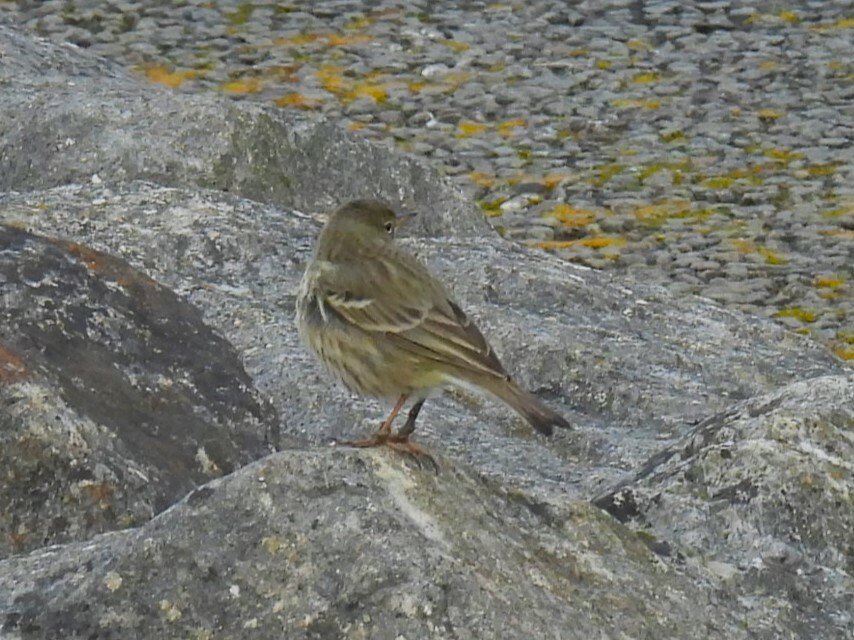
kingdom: Animalia
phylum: Chordata
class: Aves
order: Passeriformes
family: Motacillidae
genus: Anthus
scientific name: Anthus petrosus
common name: Eurasian rock pipit
